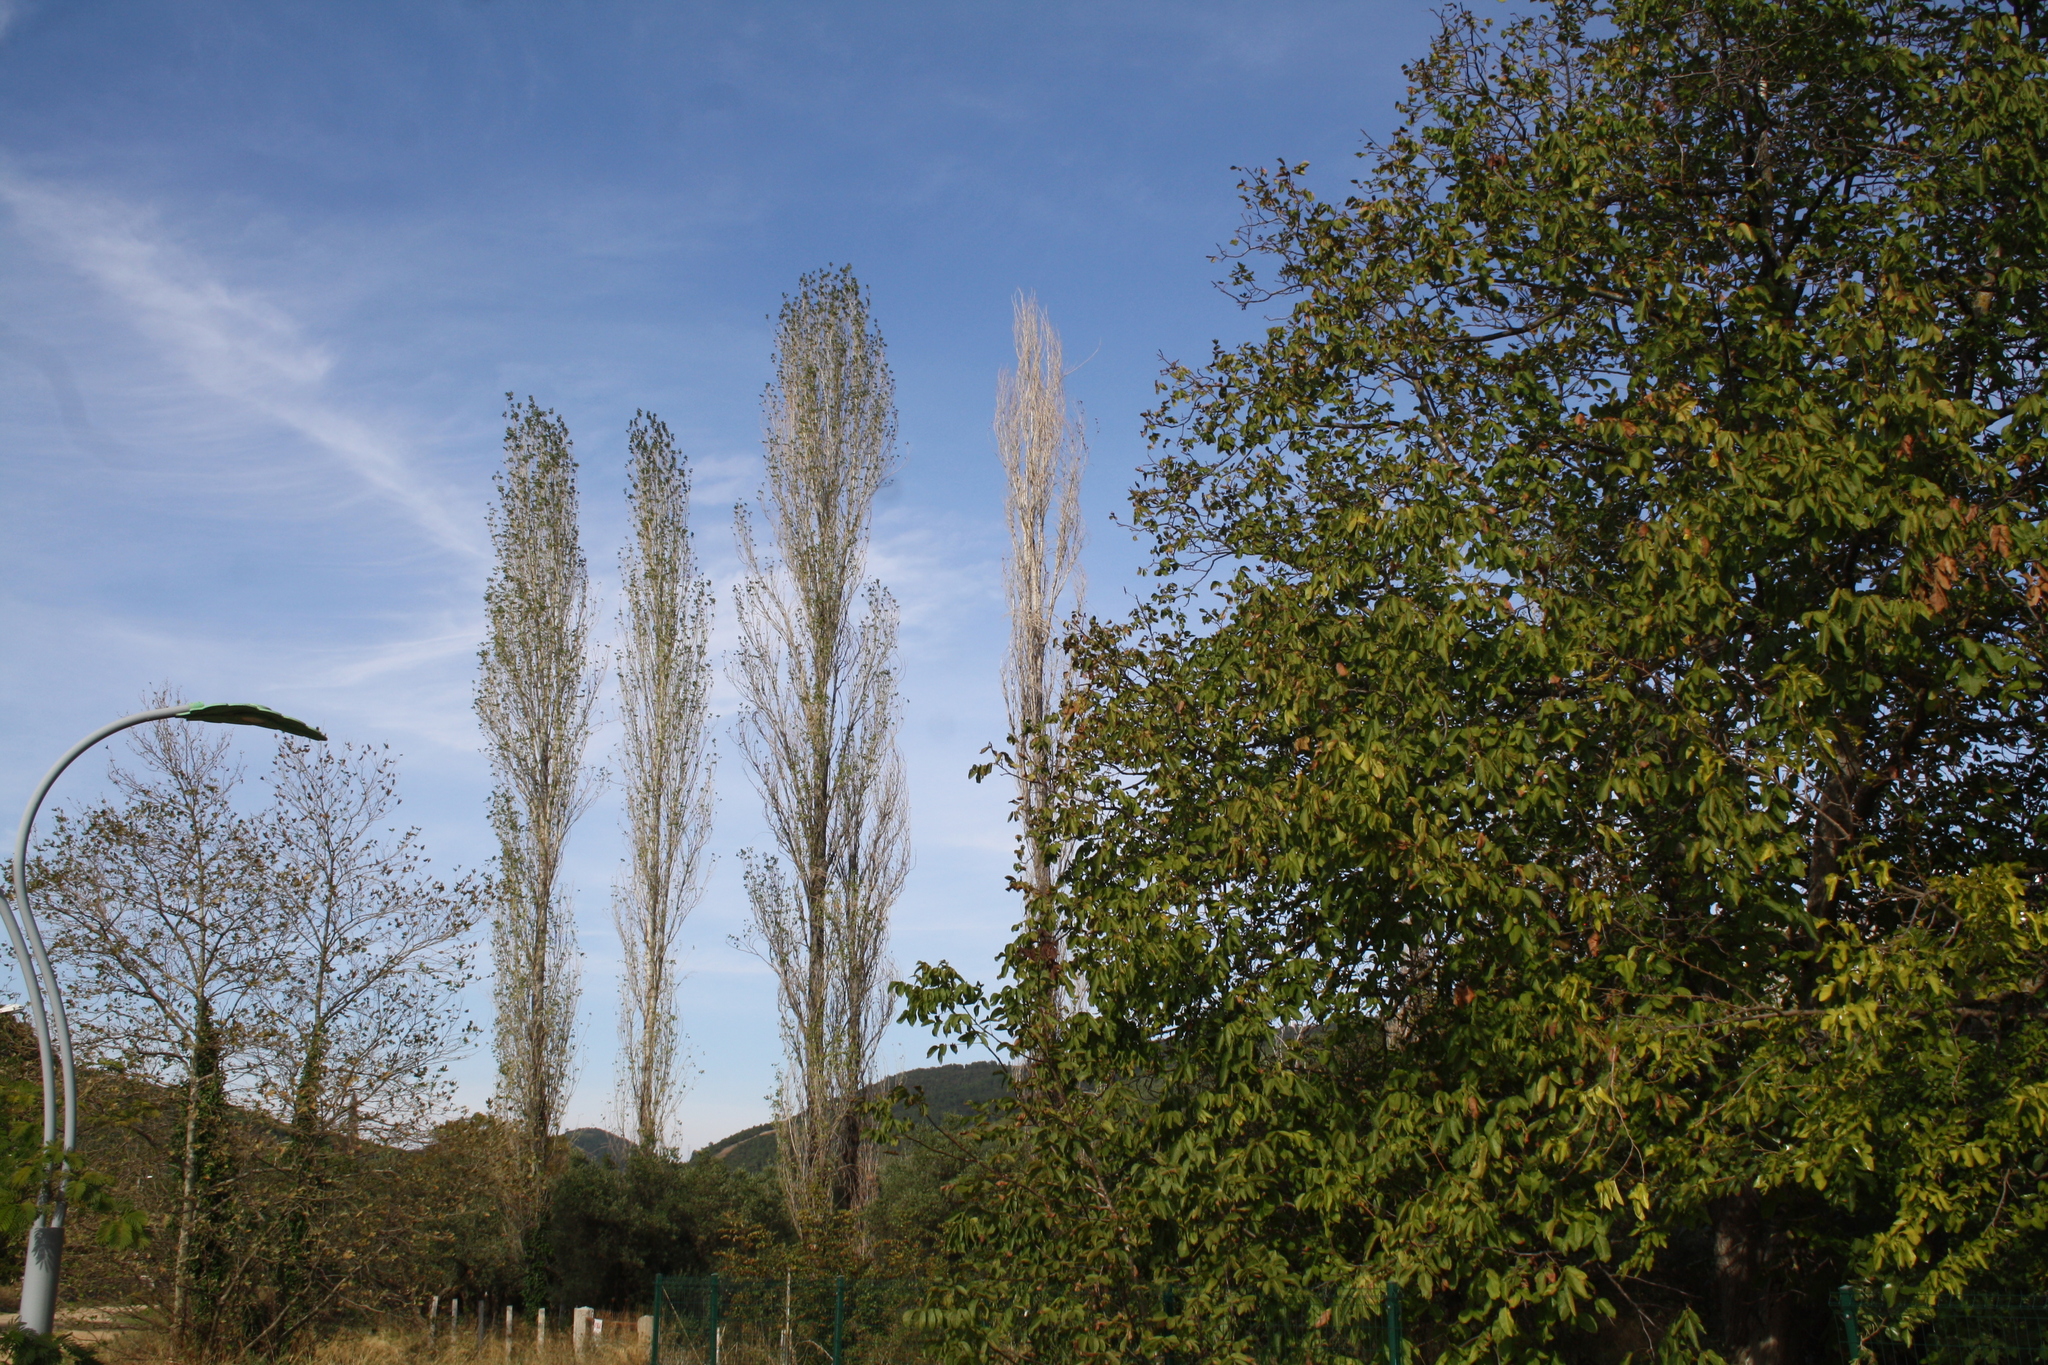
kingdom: Plantae
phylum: Tracheophyta
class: Magnoliopsida
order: Malpighiales
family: Salicaceae
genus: Populus
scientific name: Populus nigra
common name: Black poplar
